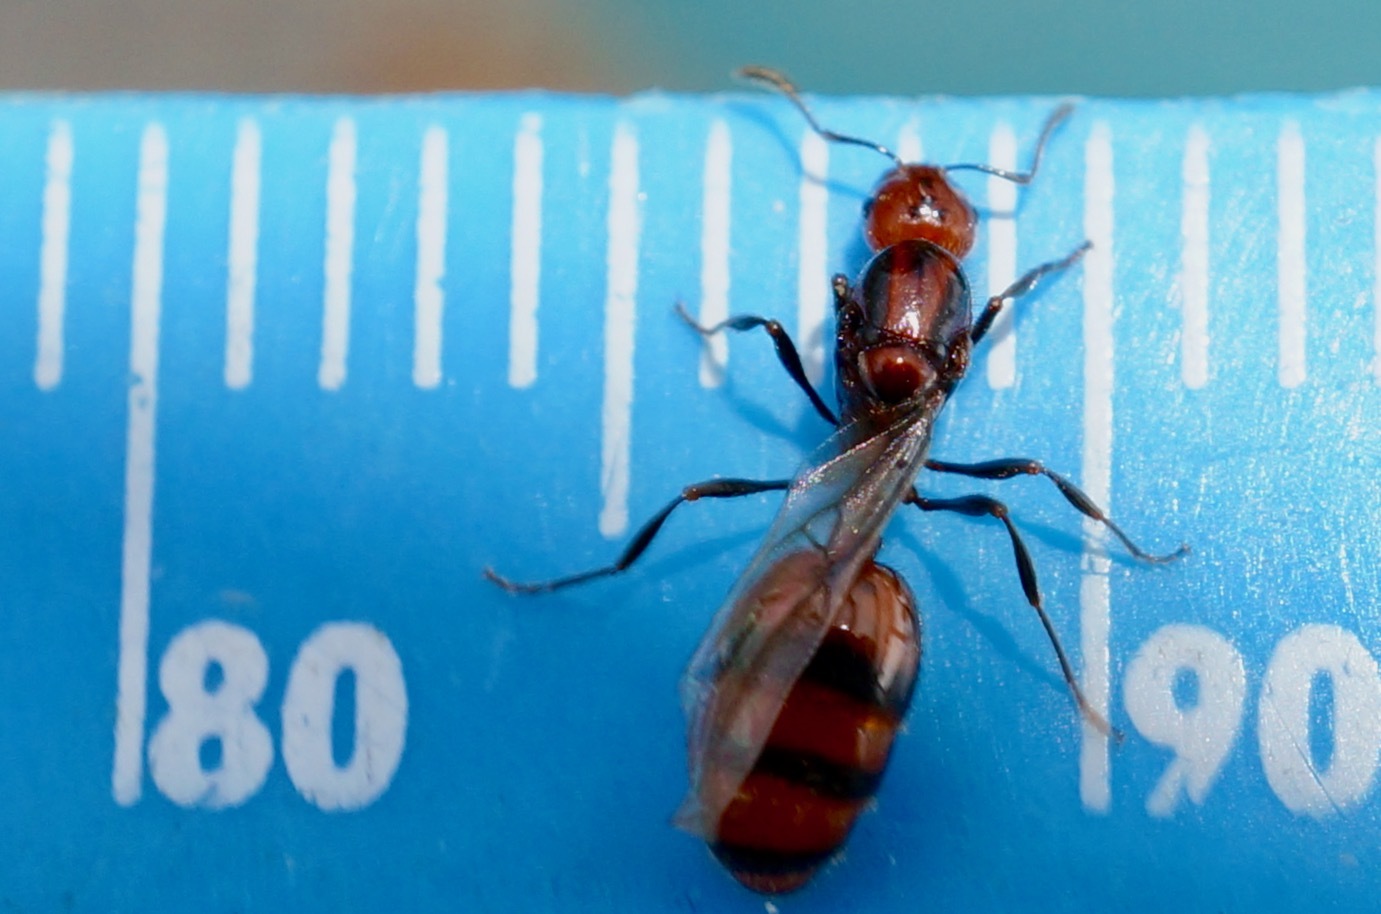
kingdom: Animalia
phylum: Arthropoda
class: Insecta
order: Hymenoptera
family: Formicidae
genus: Monomorium
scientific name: Monomorium antarcticum
